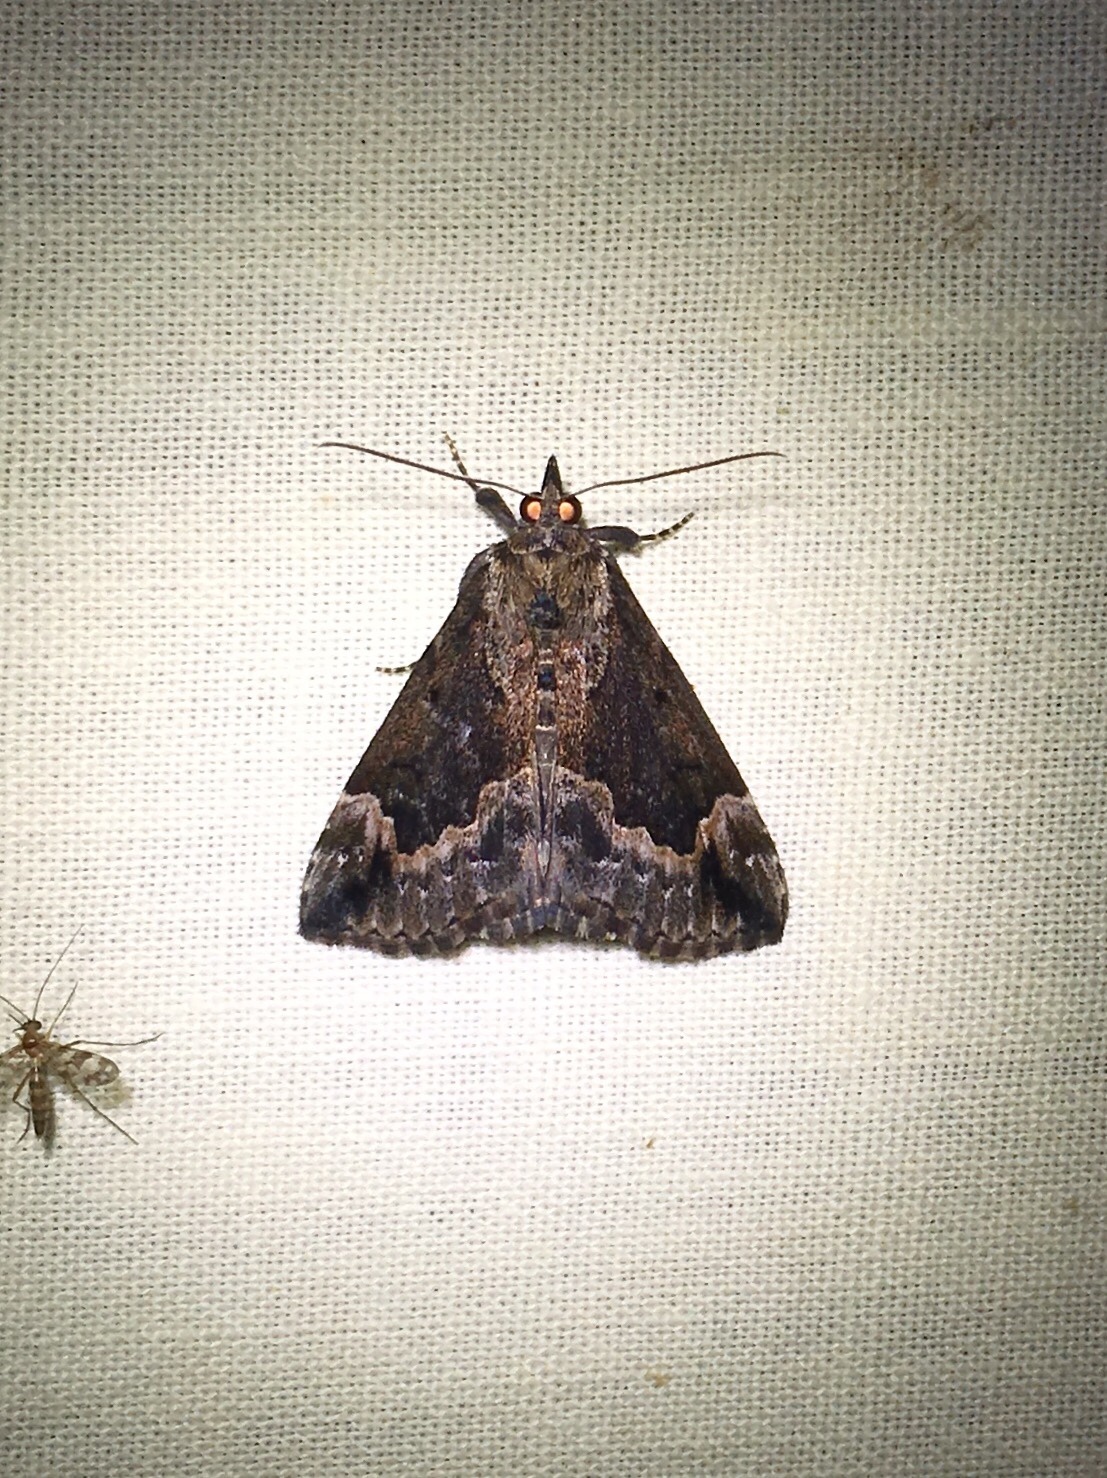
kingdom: Animalia
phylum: Arthropoda
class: Insecta
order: Lepidoptera
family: Erebidae
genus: Hypena
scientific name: Hypena baltimoralis
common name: Baltimore snout
